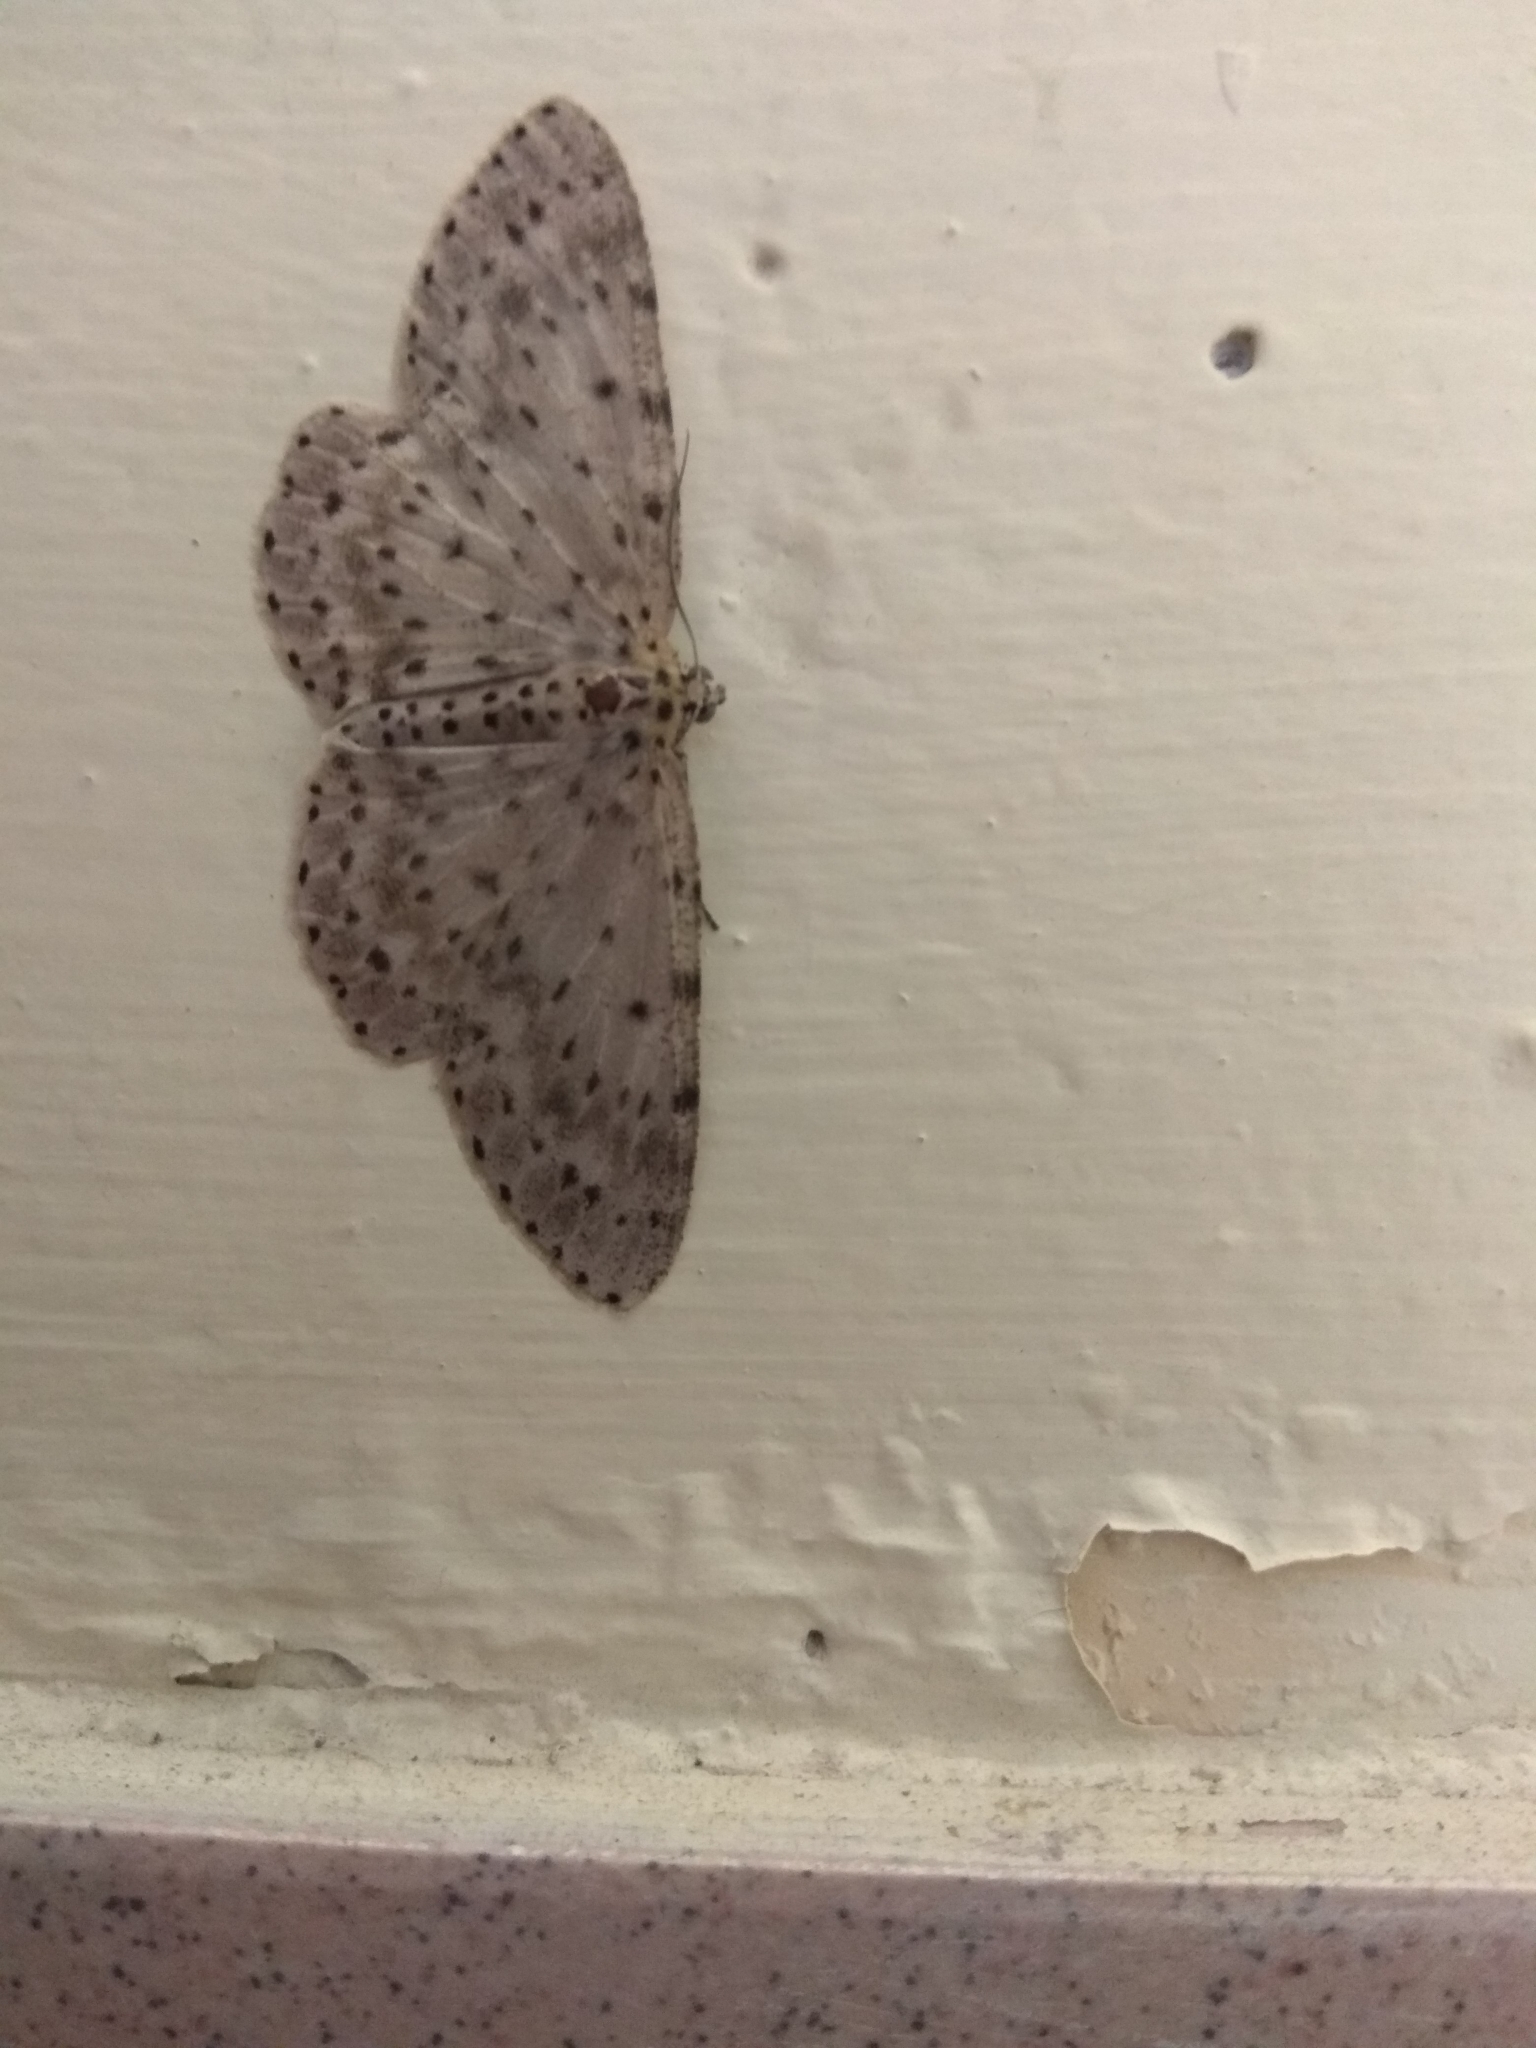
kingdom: Animalia
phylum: Arthropoda
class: Insecta
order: Lepidoptera
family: Geometridae
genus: Percnia
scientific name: Percnia fumidaria
